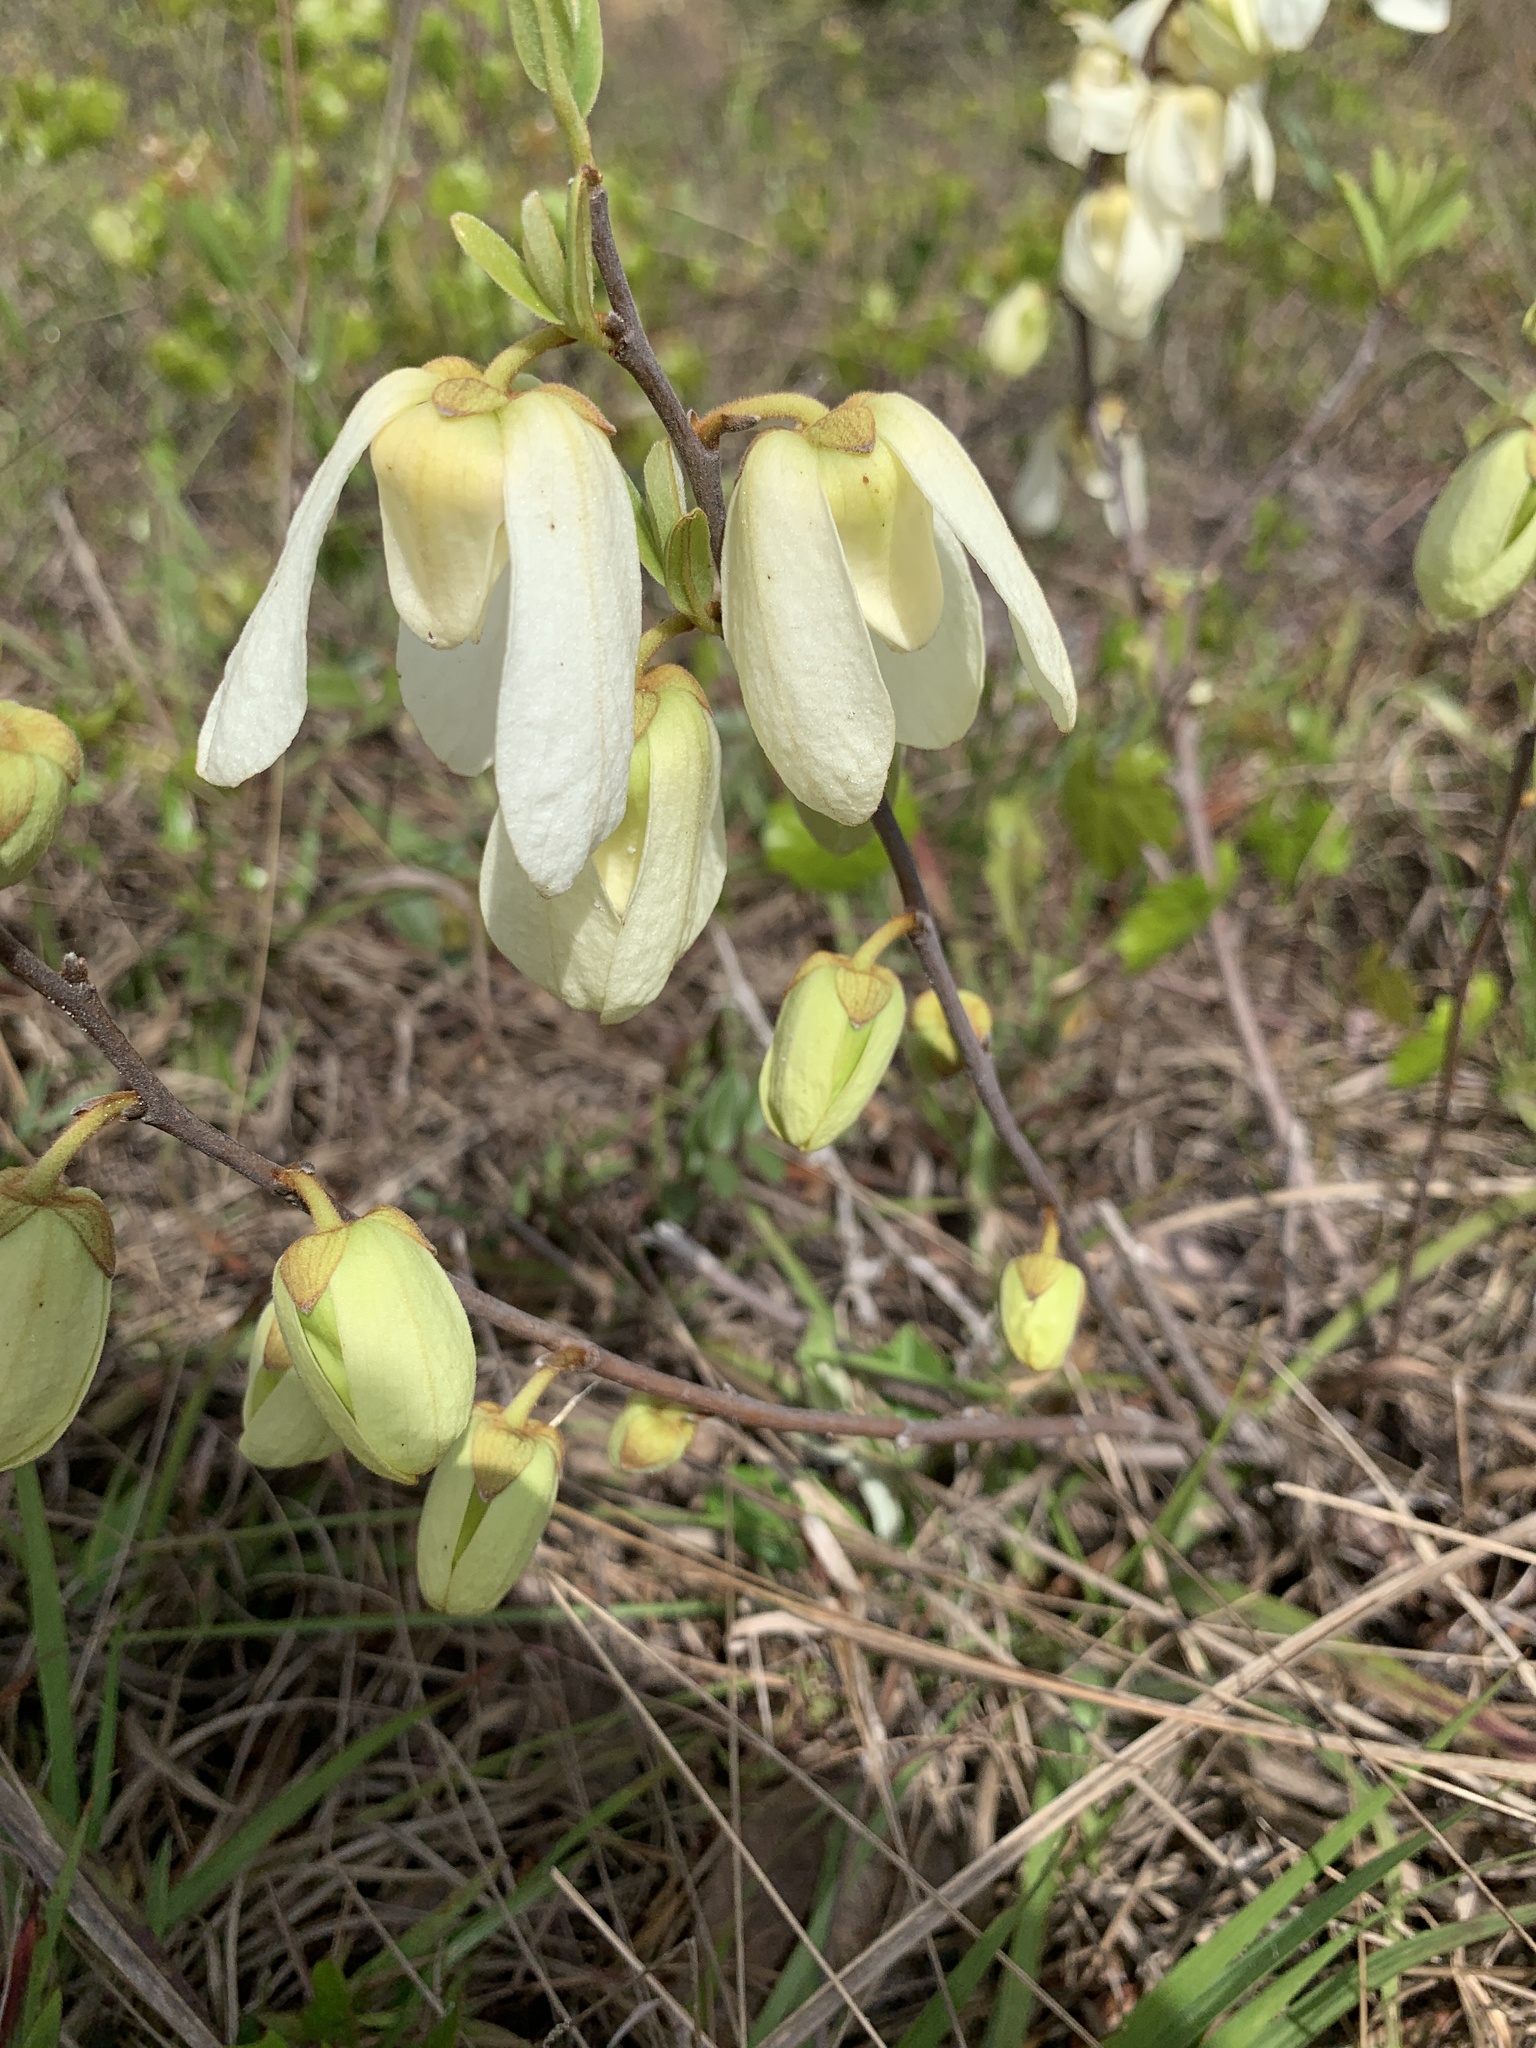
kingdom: Plantae
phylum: Tracheophyta
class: Magnoliopsida
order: Magnoliales
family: Annonaceae
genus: Asimina
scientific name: Asimina reticulata
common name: Flag pawpaw
